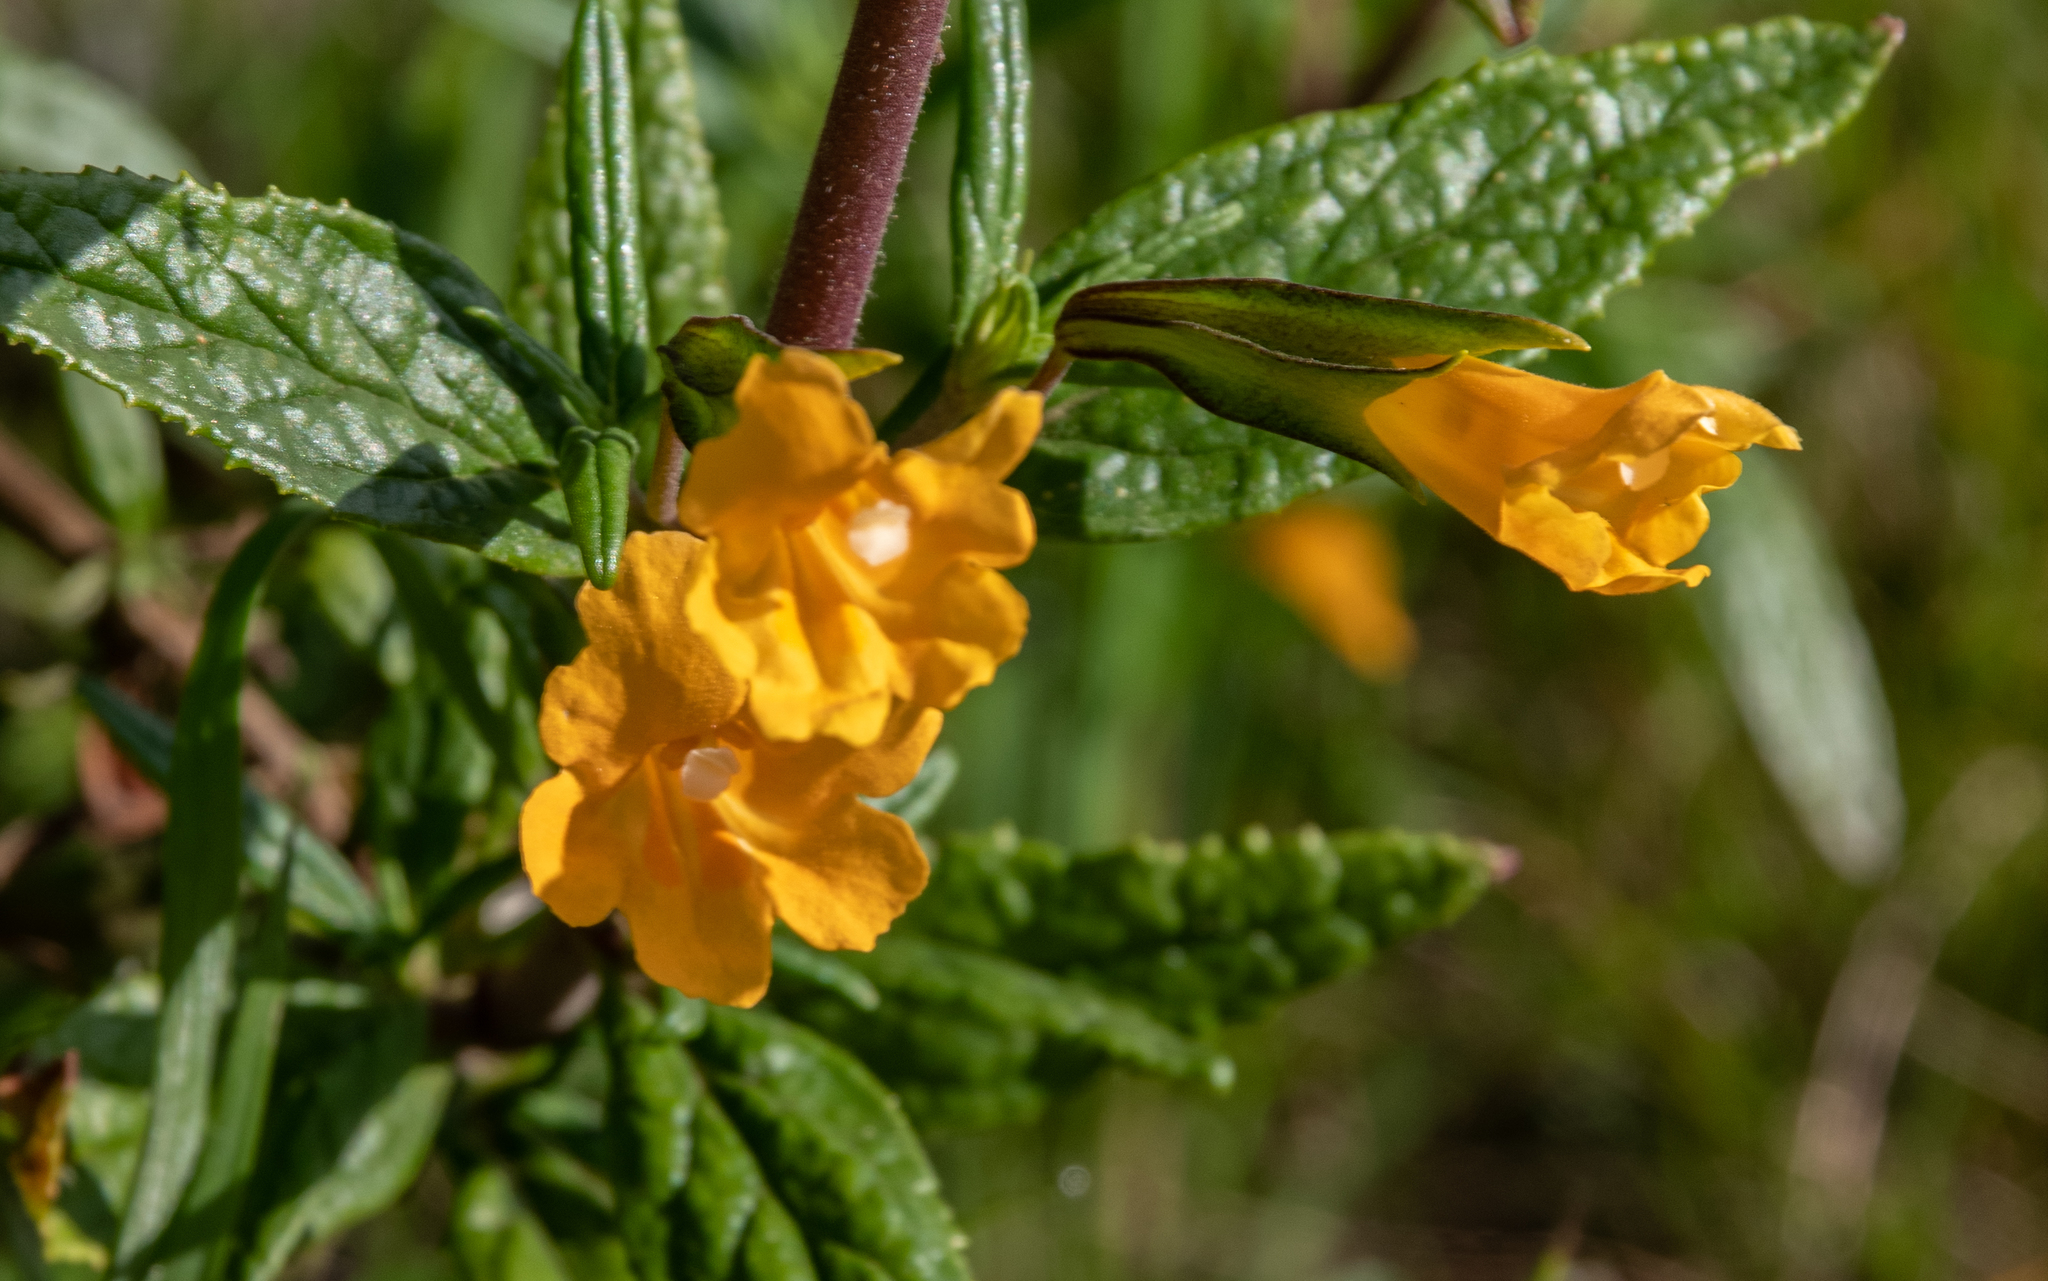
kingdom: Plantae
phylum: Tracheophyta
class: Magnoliopsida
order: Lamiales
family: Phrymaceae
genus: Diplacus
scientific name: Diplacus aurantiacus
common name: Bush monkey-flower
